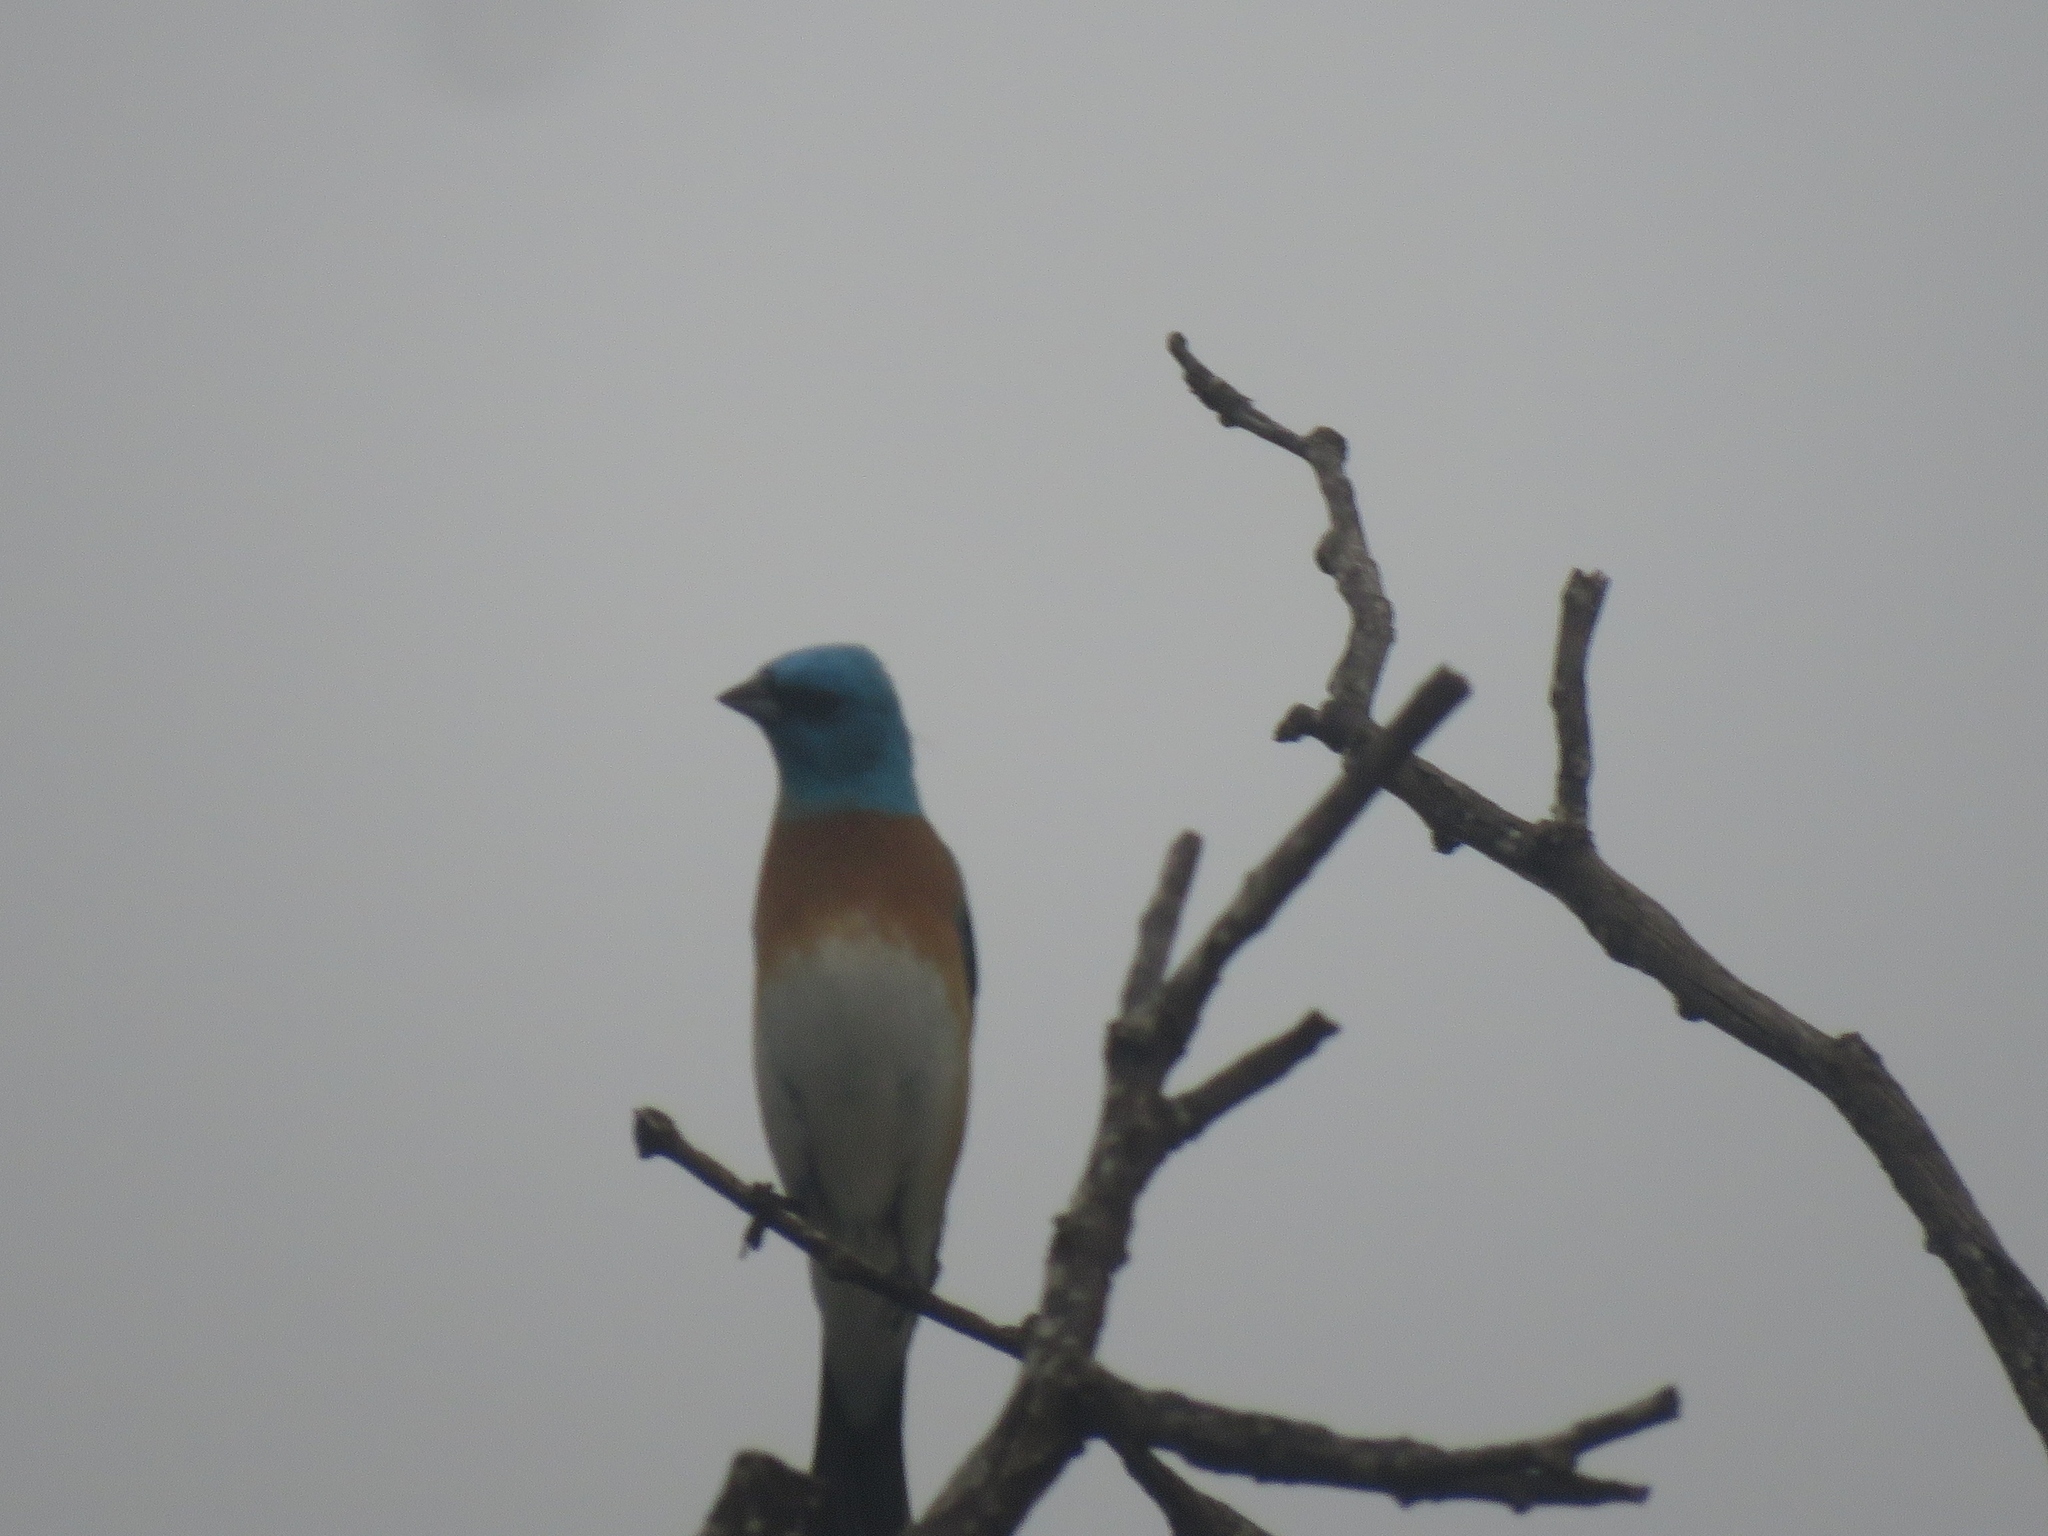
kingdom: Animalia
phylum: Chordata
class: Aves
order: Passeriformes
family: Cardinalidae
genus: Passerina
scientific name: Passerina amoena
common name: Lazuli bunting
